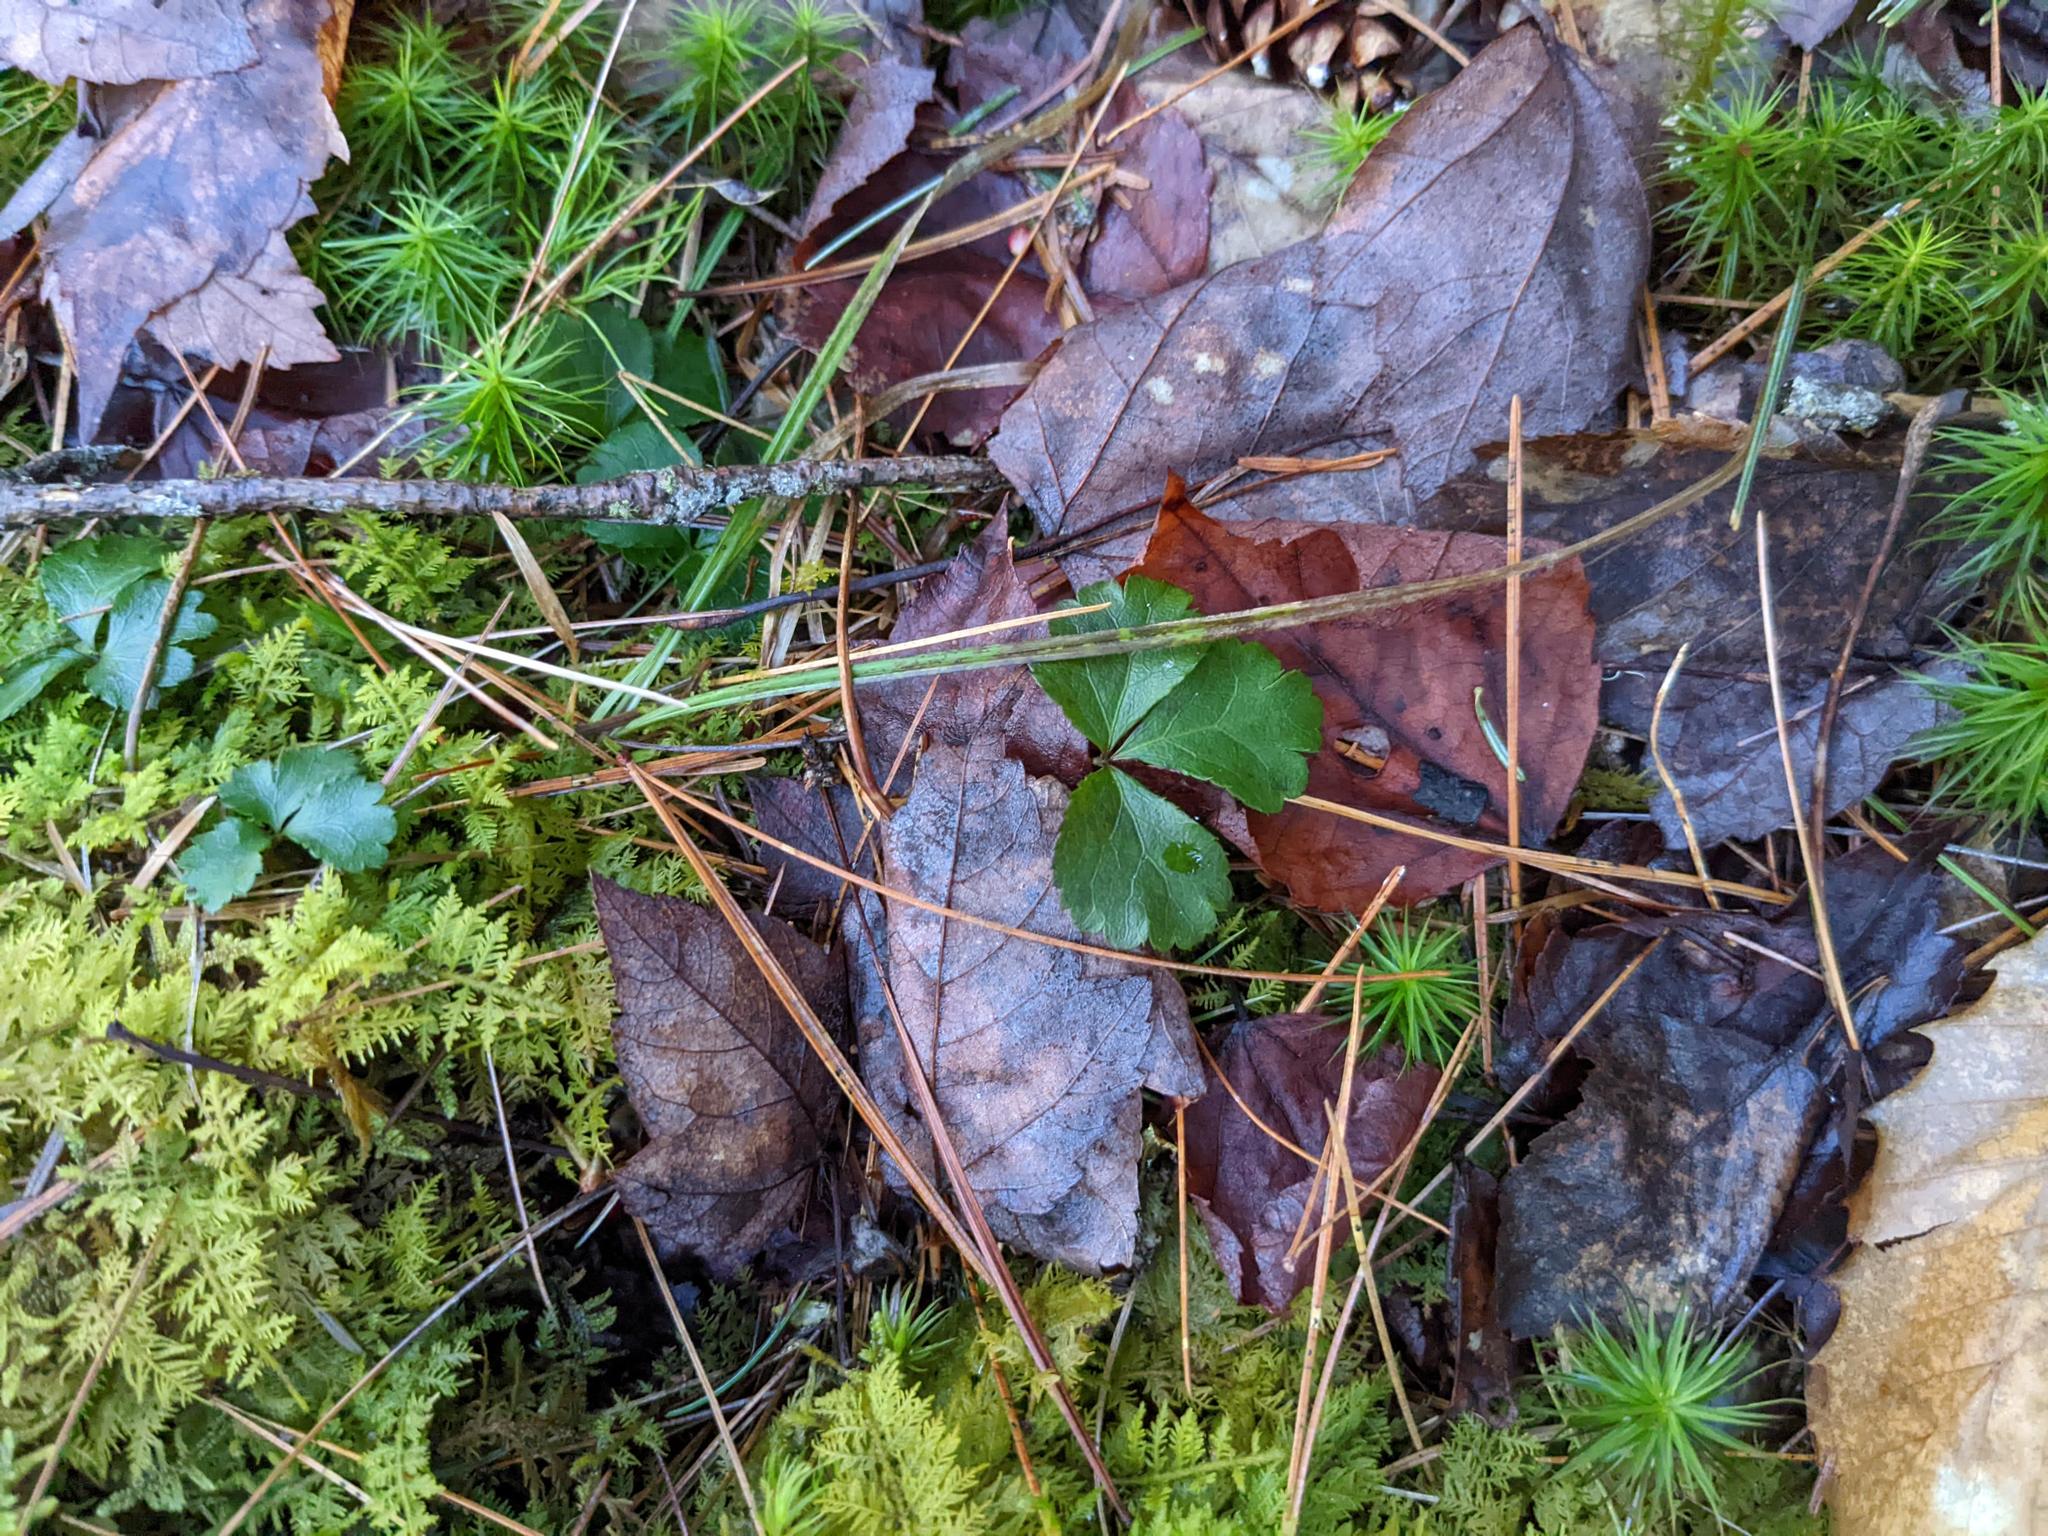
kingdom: Plantae
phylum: Tracheophyta
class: Pinopsida
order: Pinales
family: Pinaceae
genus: Pinus
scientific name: Pinus strobus
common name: Weymouth pine
